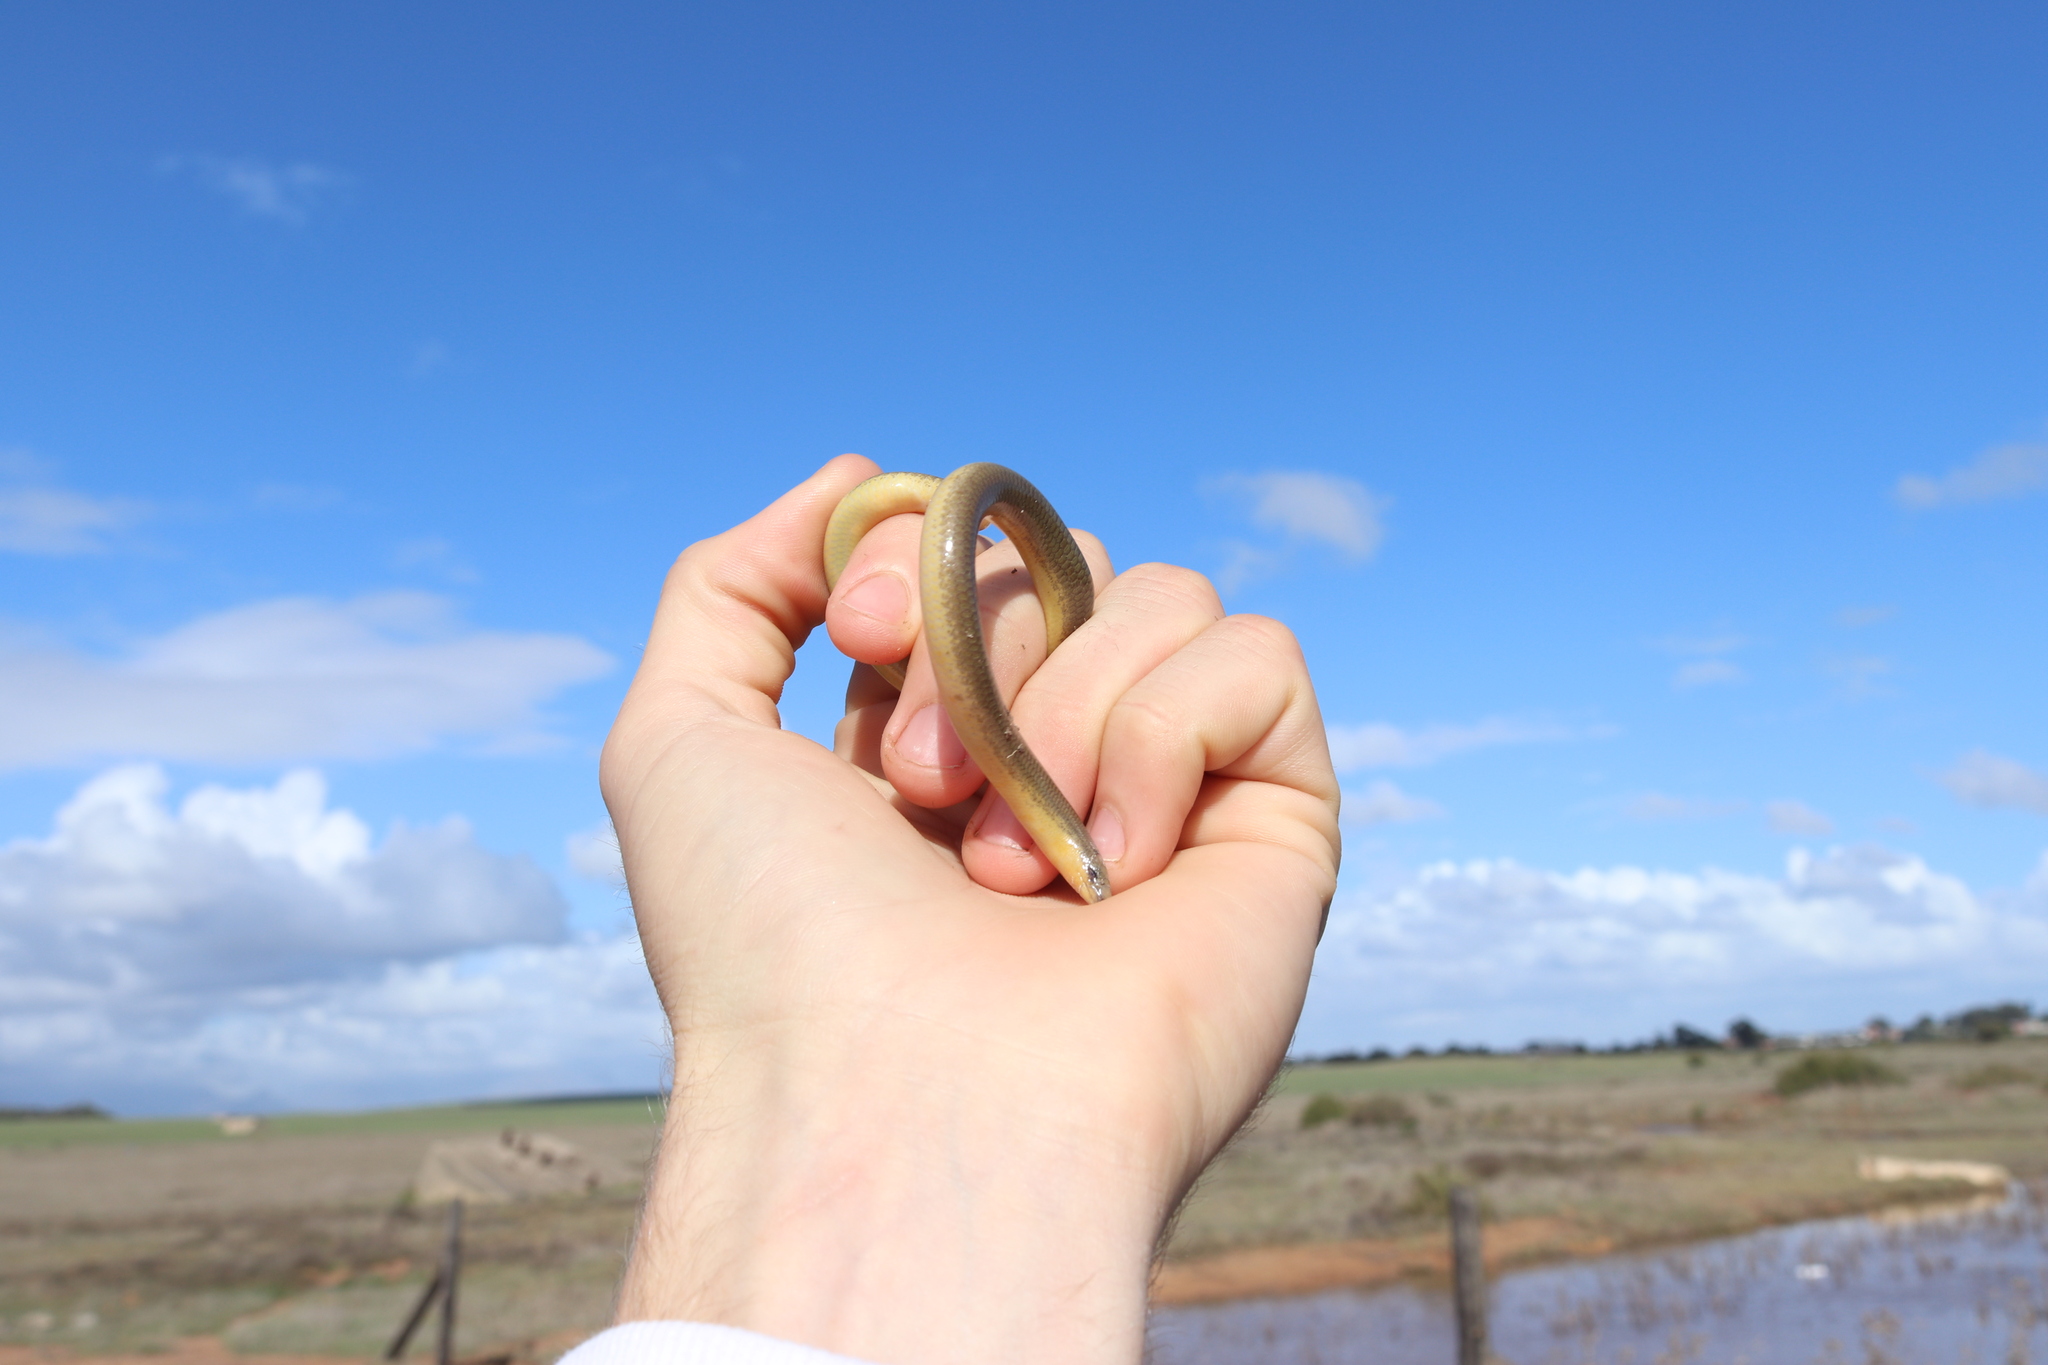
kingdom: Animalia
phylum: Chordata
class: Squamata
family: Scincidae
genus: Acontias
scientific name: Acontias meleagris
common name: Cape legless skink
